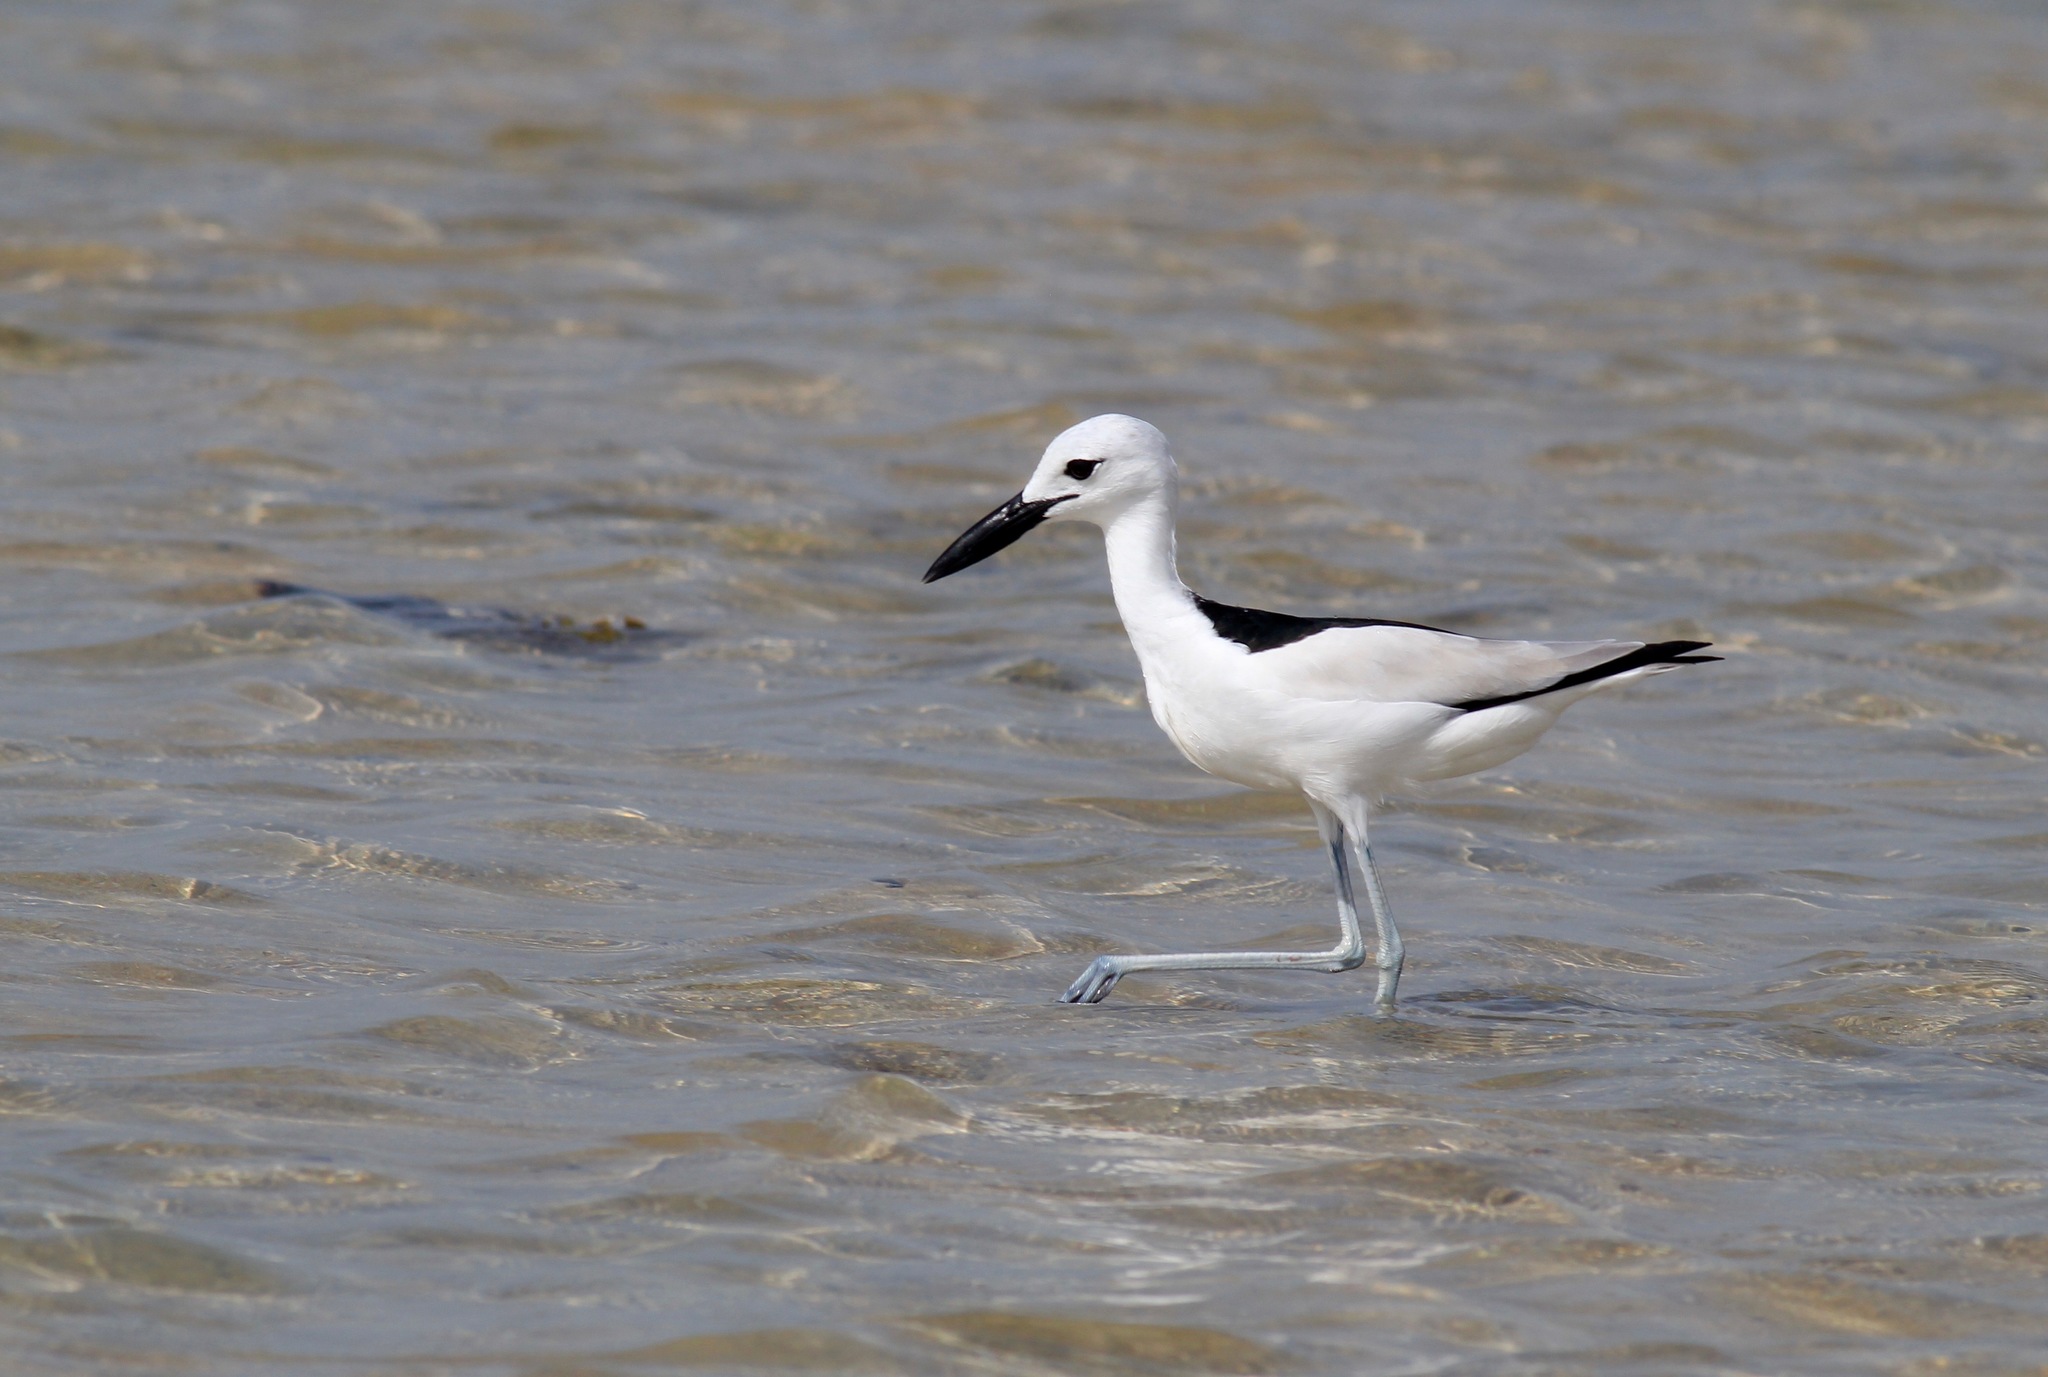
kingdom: Animalia
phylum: Chordata
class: Aves
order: Charadriiformes
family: Dromadidae
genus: Dromas
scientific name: Dromas ardeola
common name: Crab-plover
